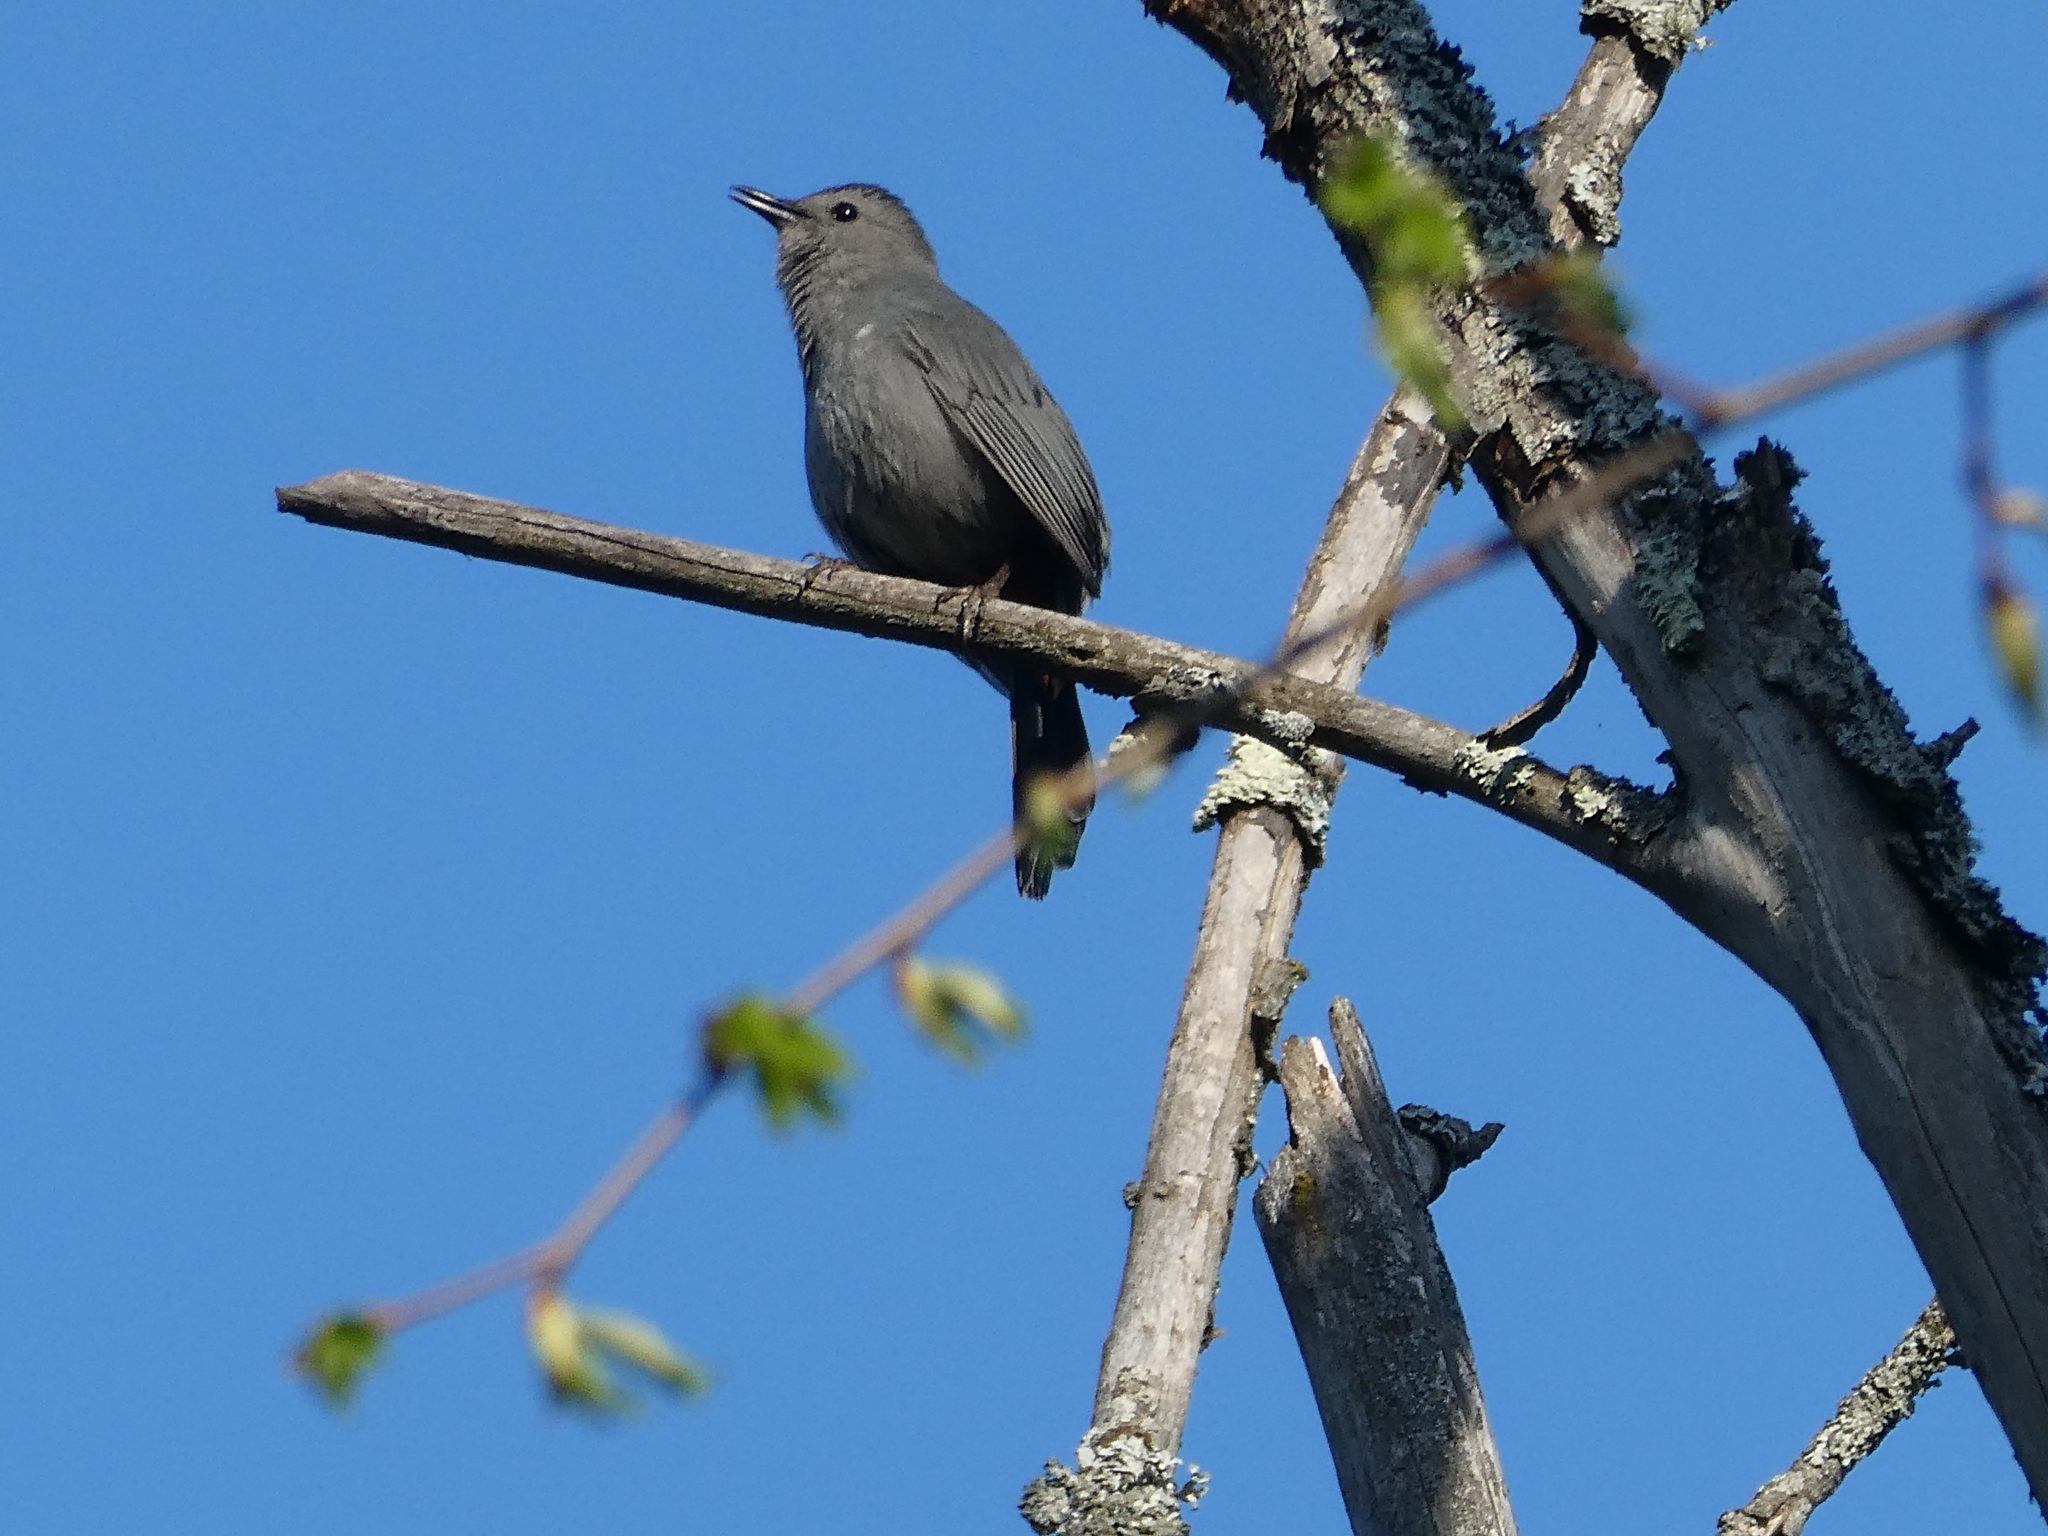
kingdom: Animalia
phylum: Chordata
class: Aves
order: Passeriformes
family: Mimidae
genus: Dumetella
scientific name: Dumetella carolinensis
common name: Gray catbird
